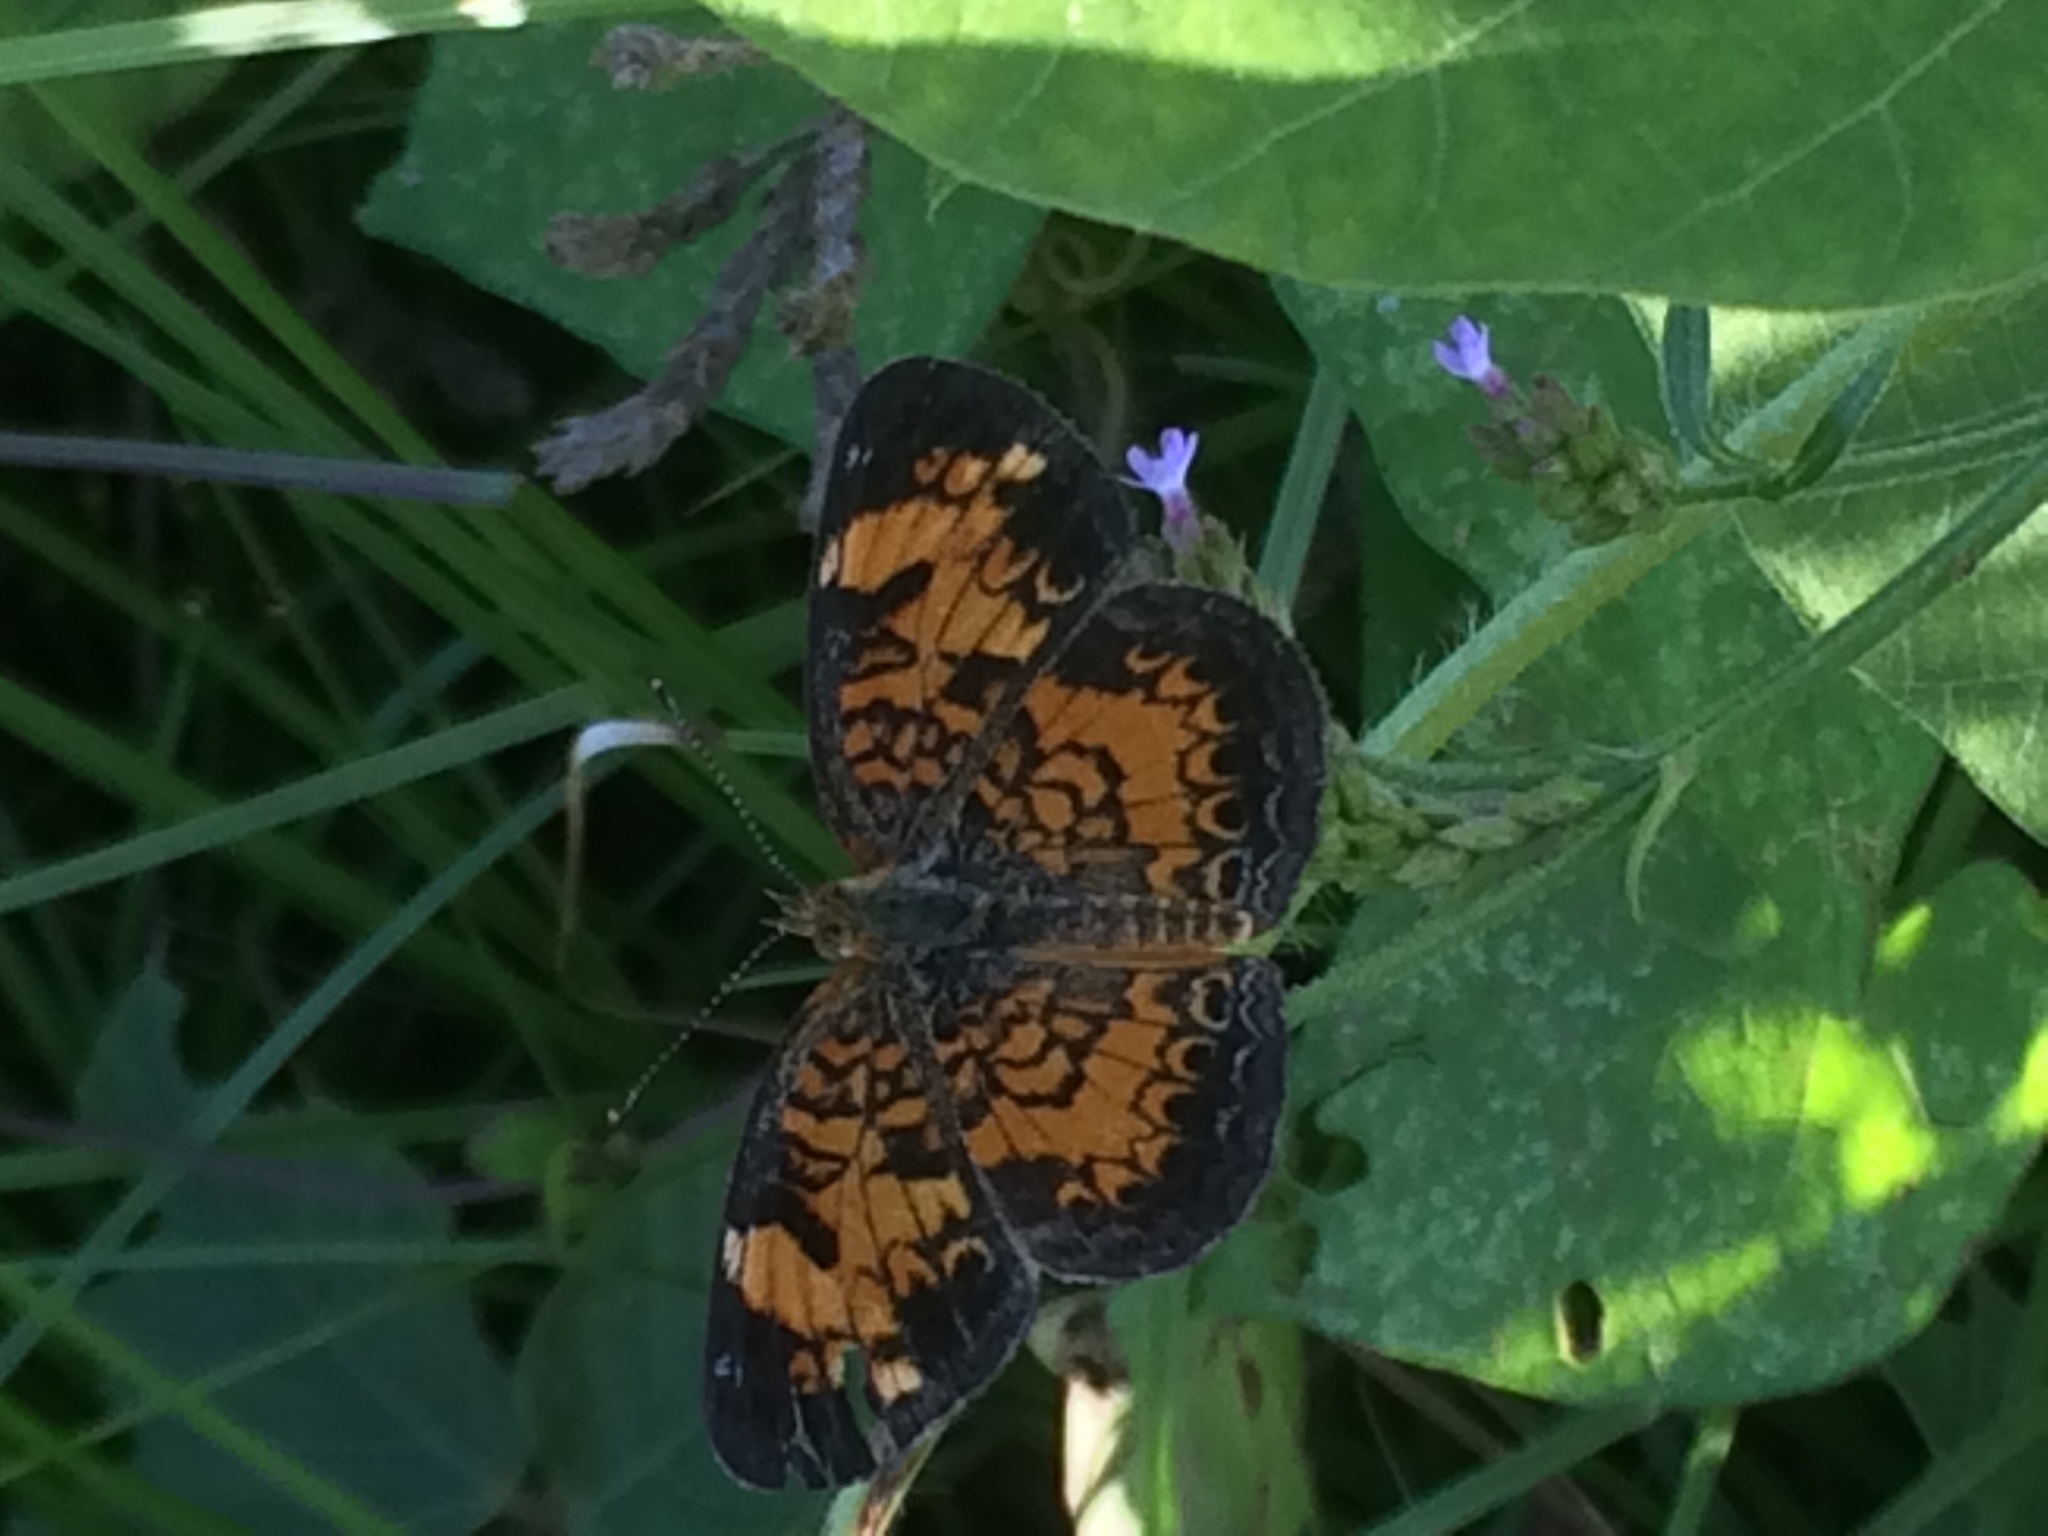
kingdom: Animalia
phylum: Arthropoda
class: Insecta
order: Lepidoptera
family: Nymphalidae
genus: Phyciodes
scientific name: Phyciodes tharos
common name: Pearl crescent
